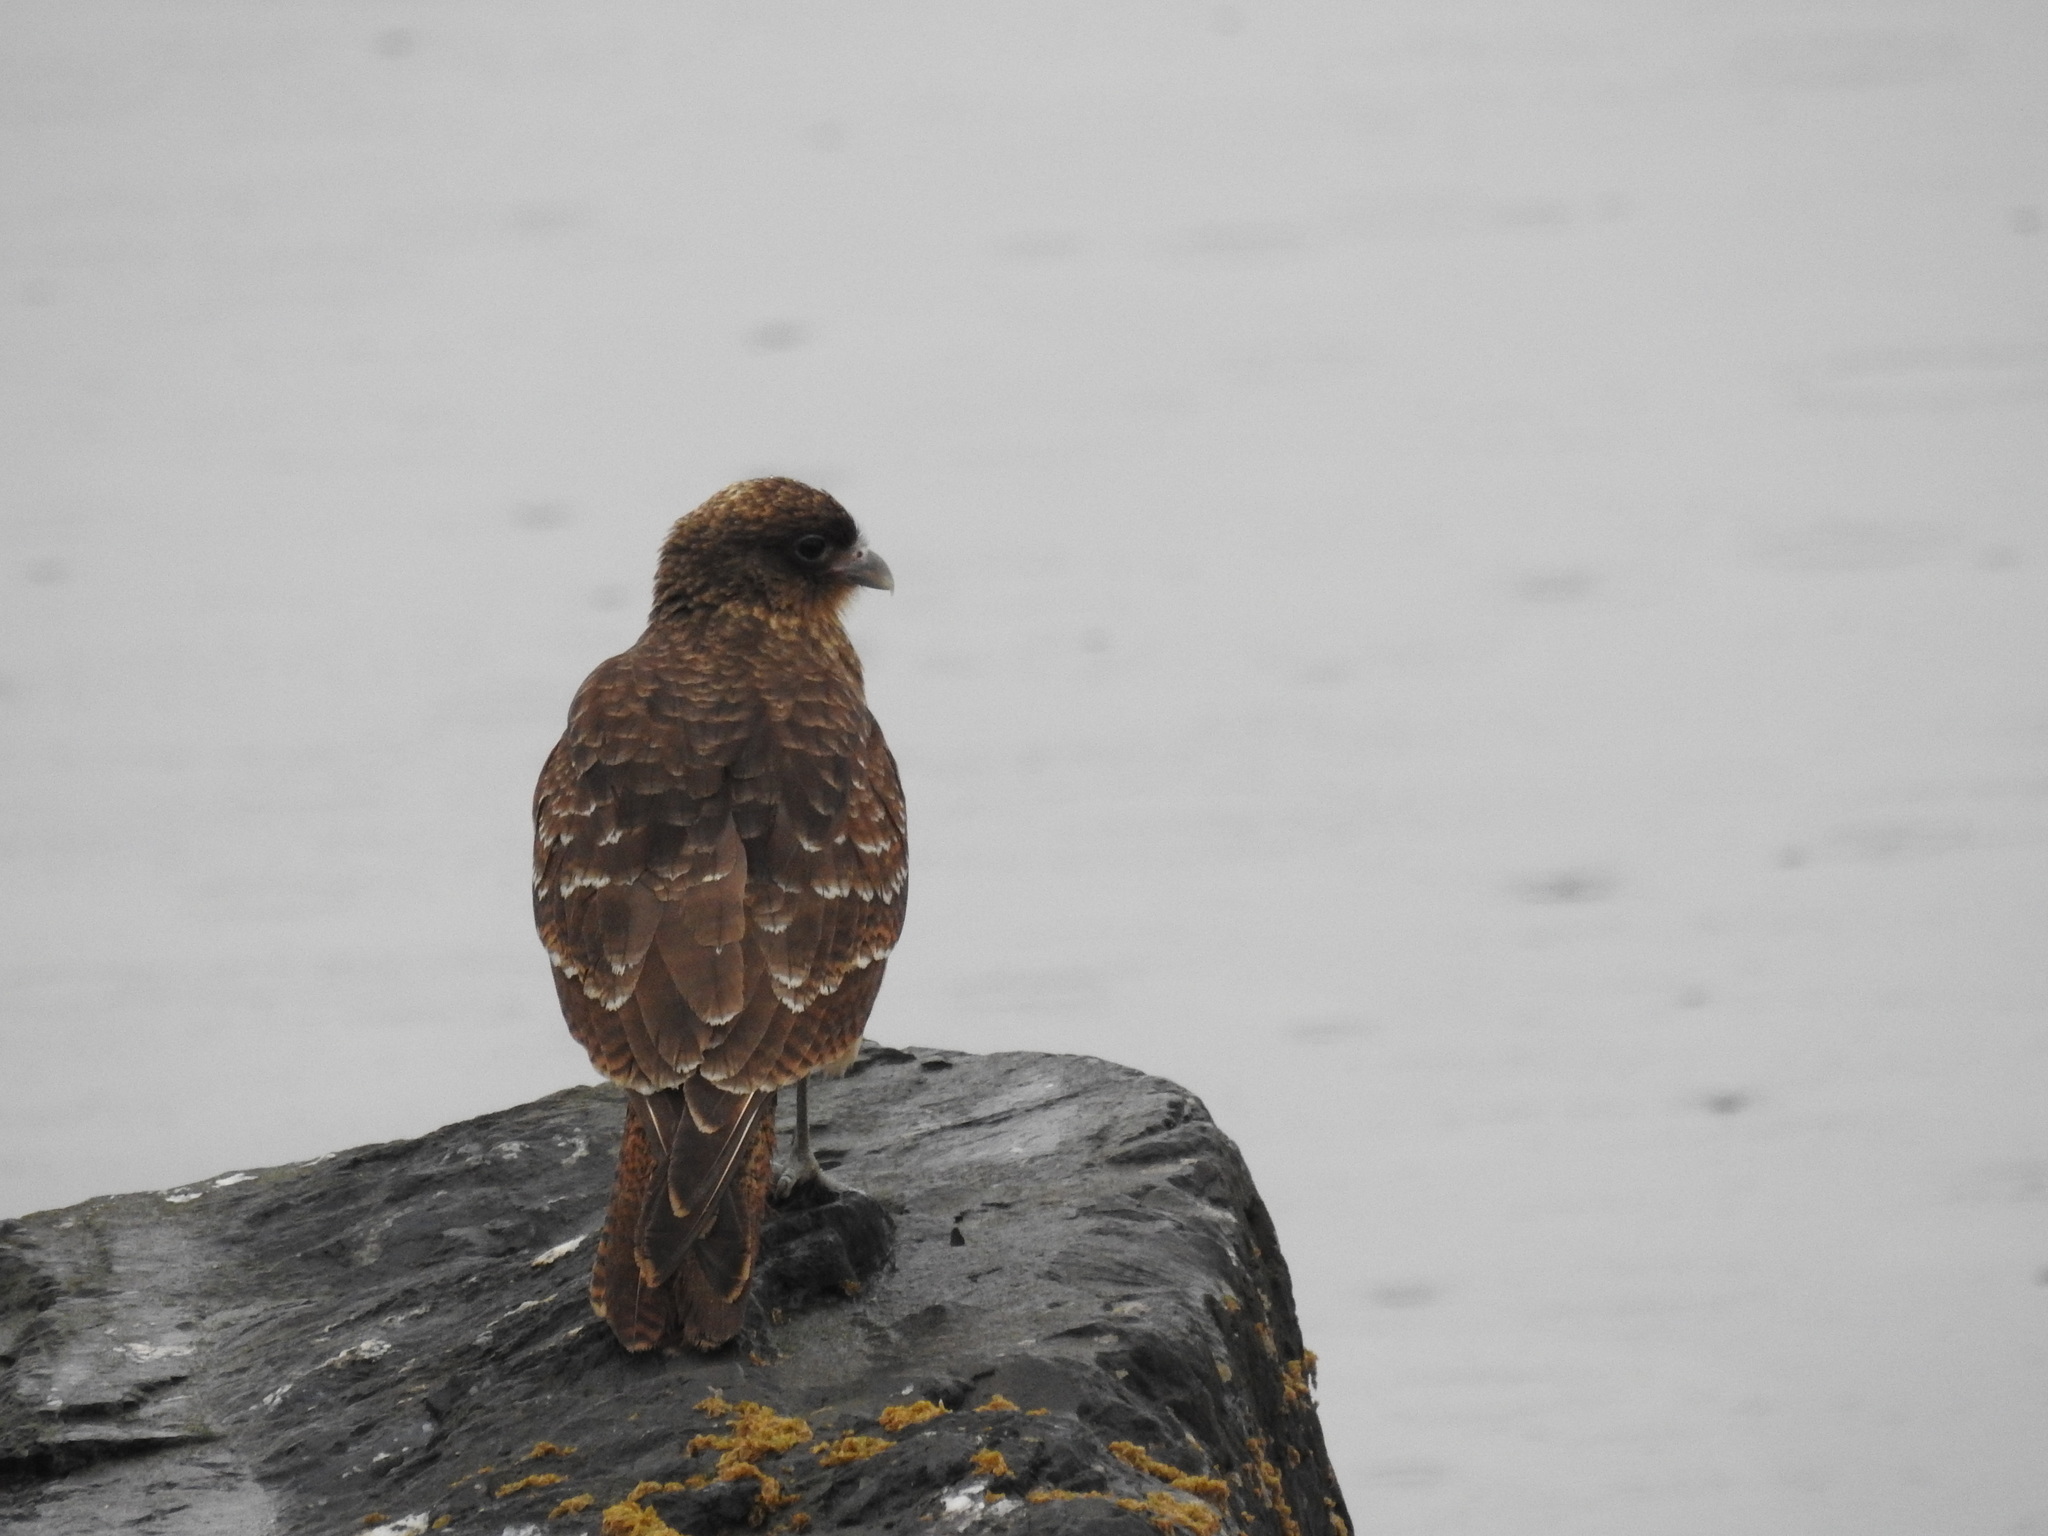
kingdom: Animalia
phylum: Chordata
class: Aves
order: Falconiformes
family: Falconidae
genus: Daptrius
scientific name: Daptrius
